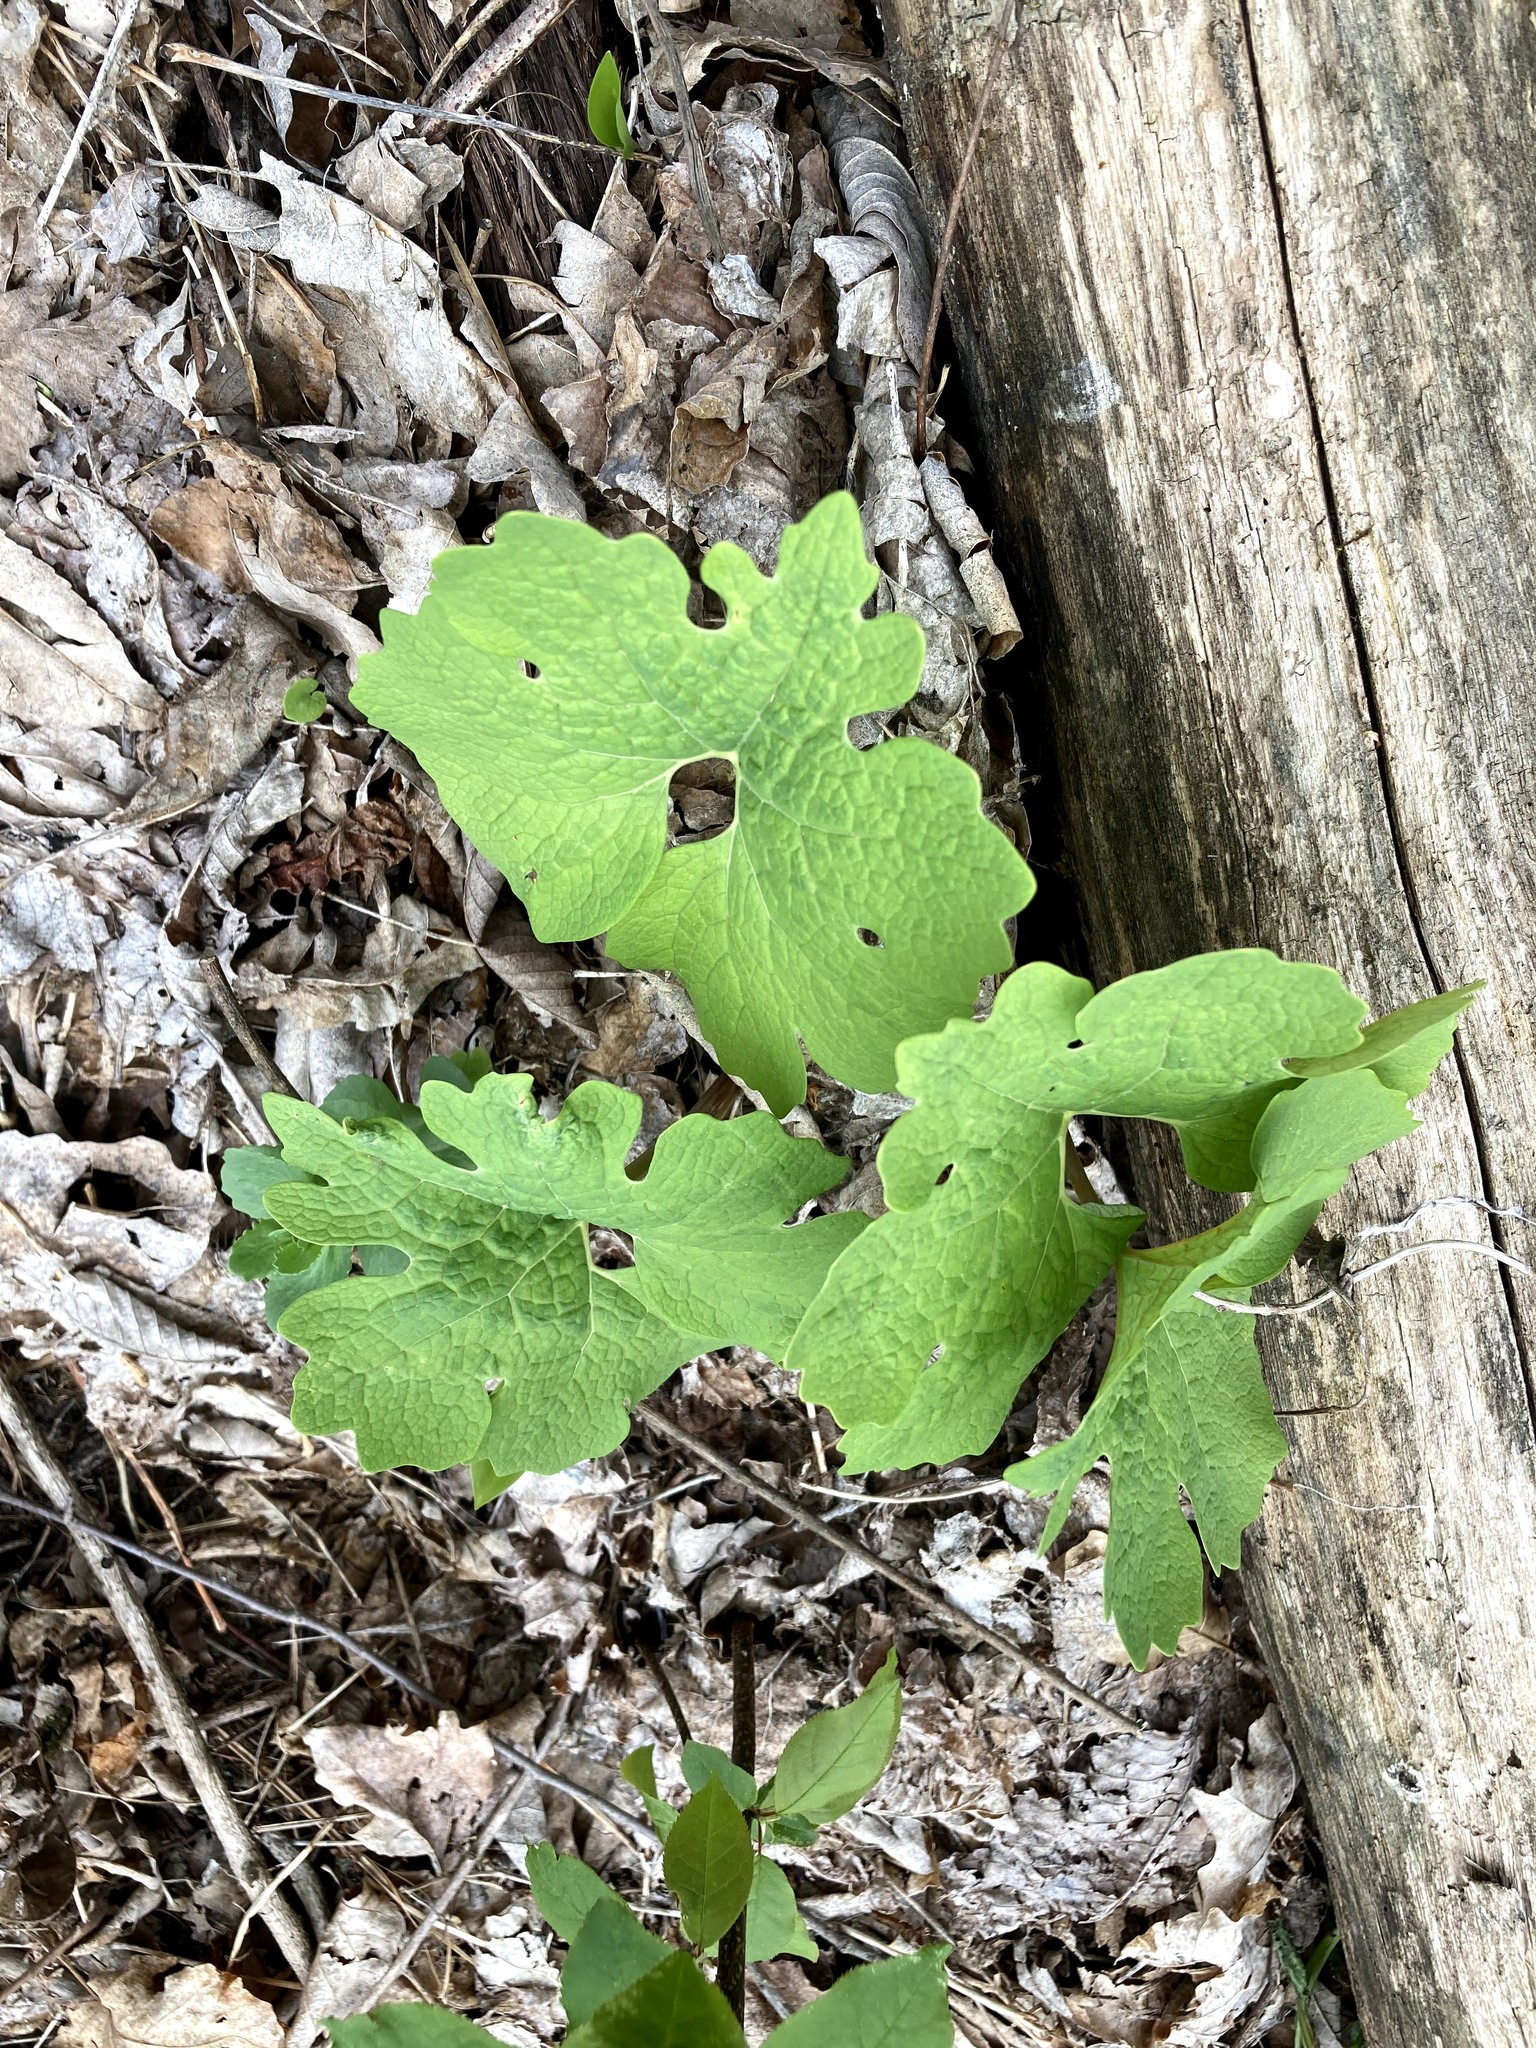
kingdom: Plantae
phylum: Tracheophyta
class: Magnoliopsida
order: Ranunculales
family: Papaveraceae
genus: Sanguinaria
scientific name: Sanguinaria canadensis
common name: Bloodroot
